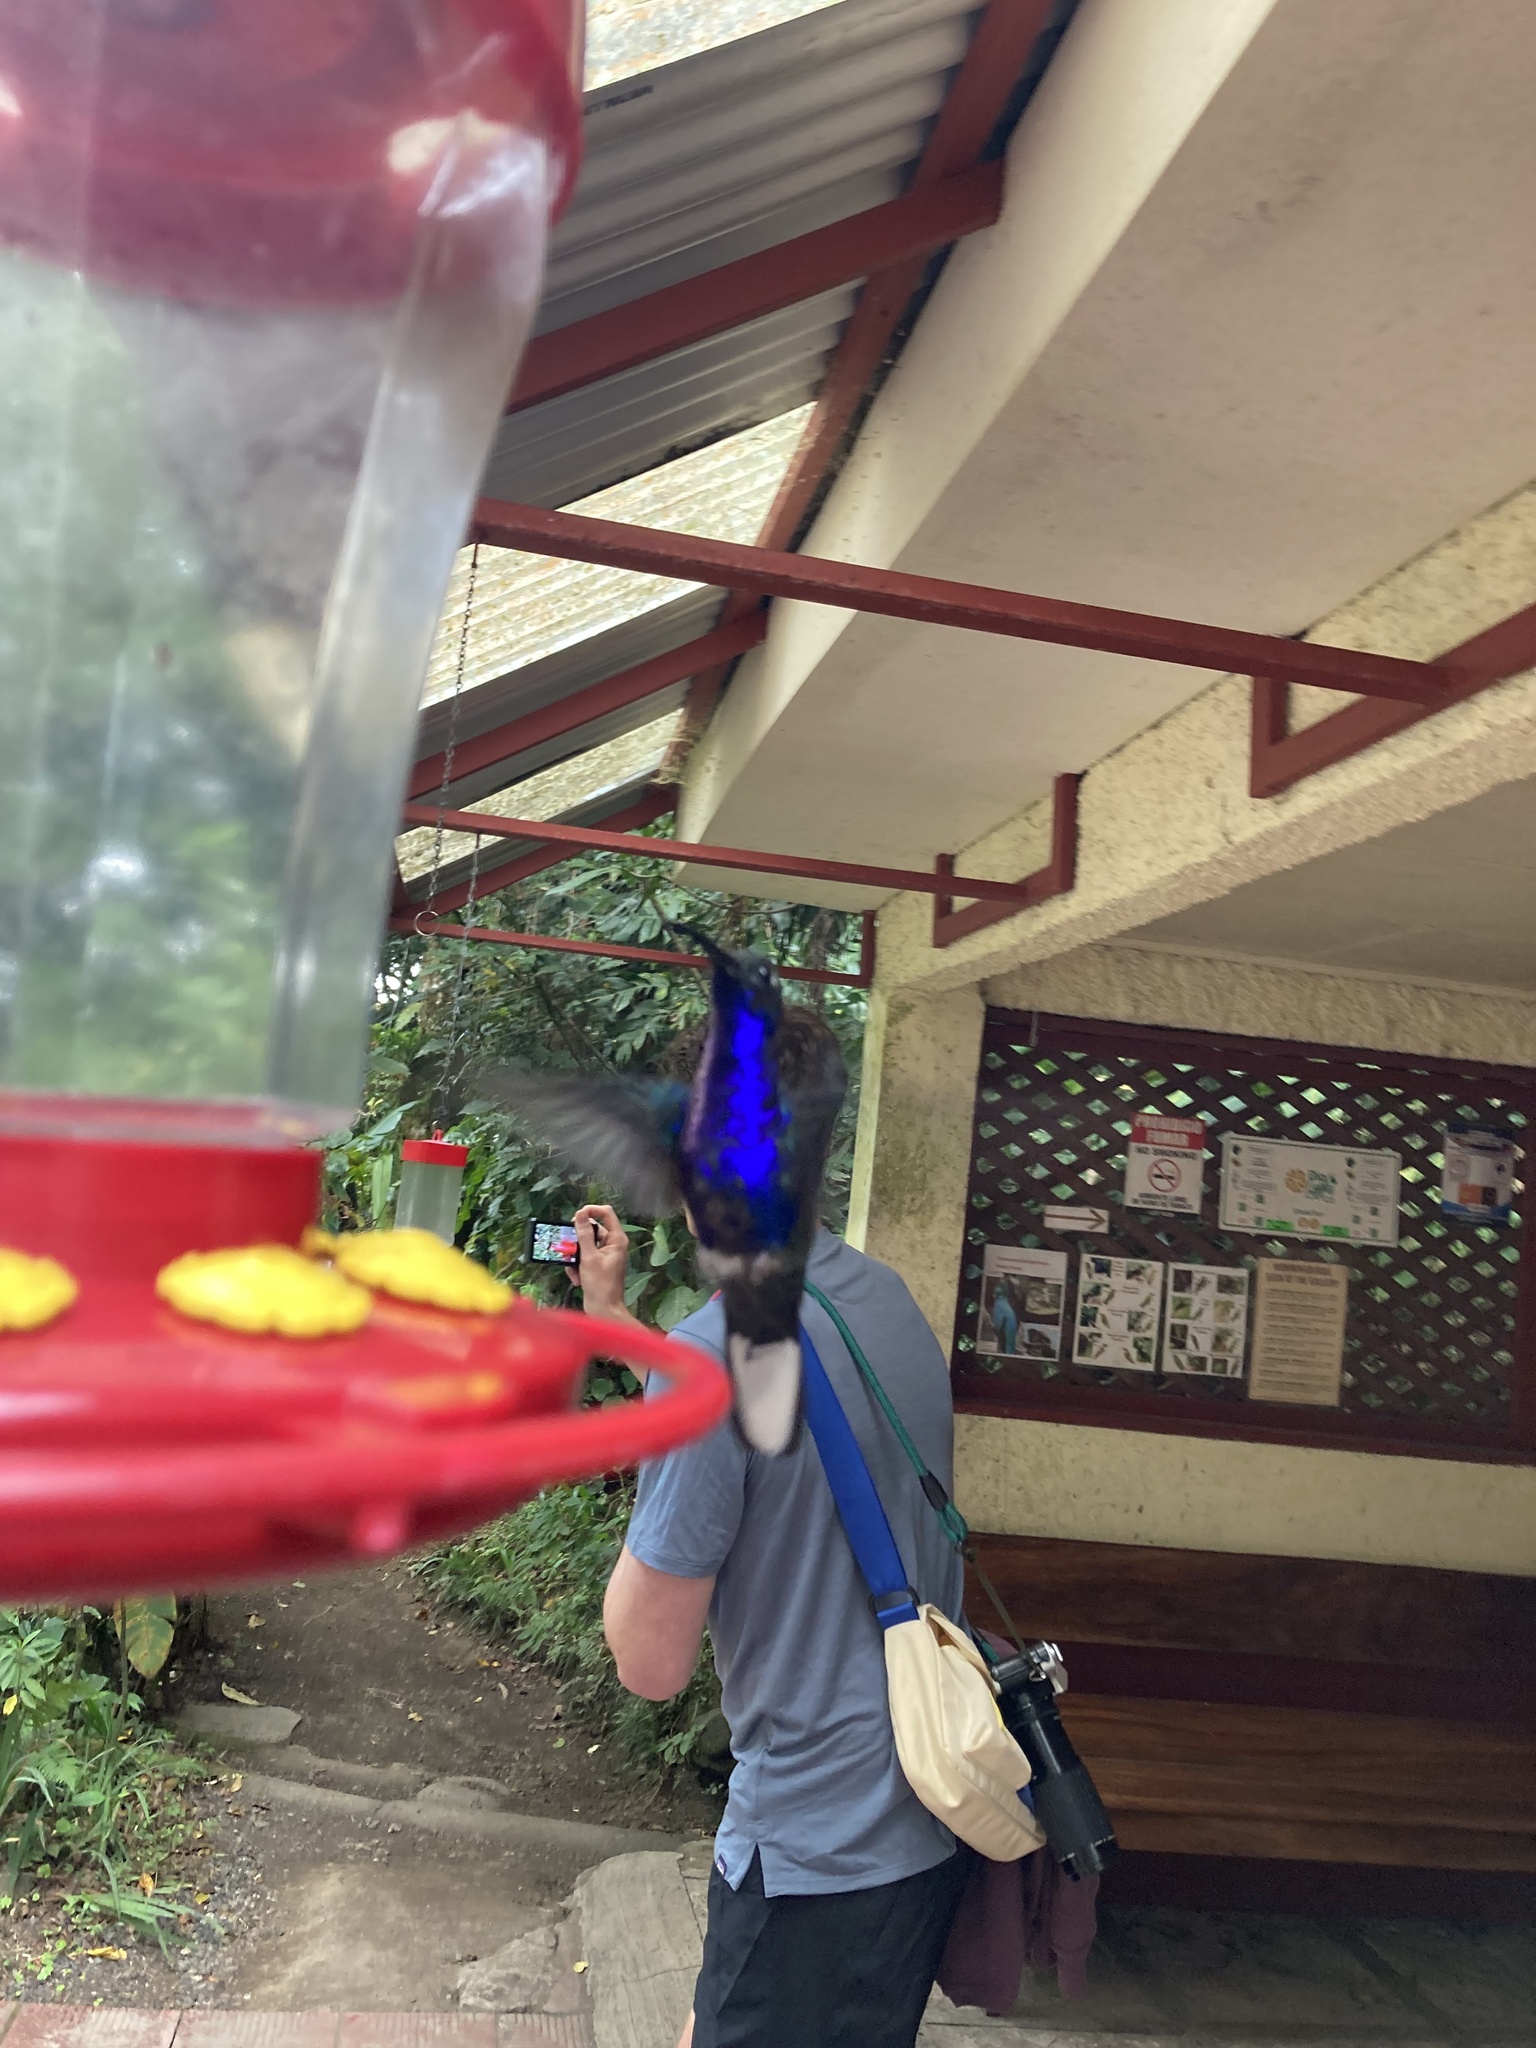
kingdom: Animalia
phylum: Chordata
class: Aves
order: Apodiformes
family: Trochilidae
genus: Campylopterus
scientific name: Campylopterus hemileucurus
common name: Violet sabrewing
